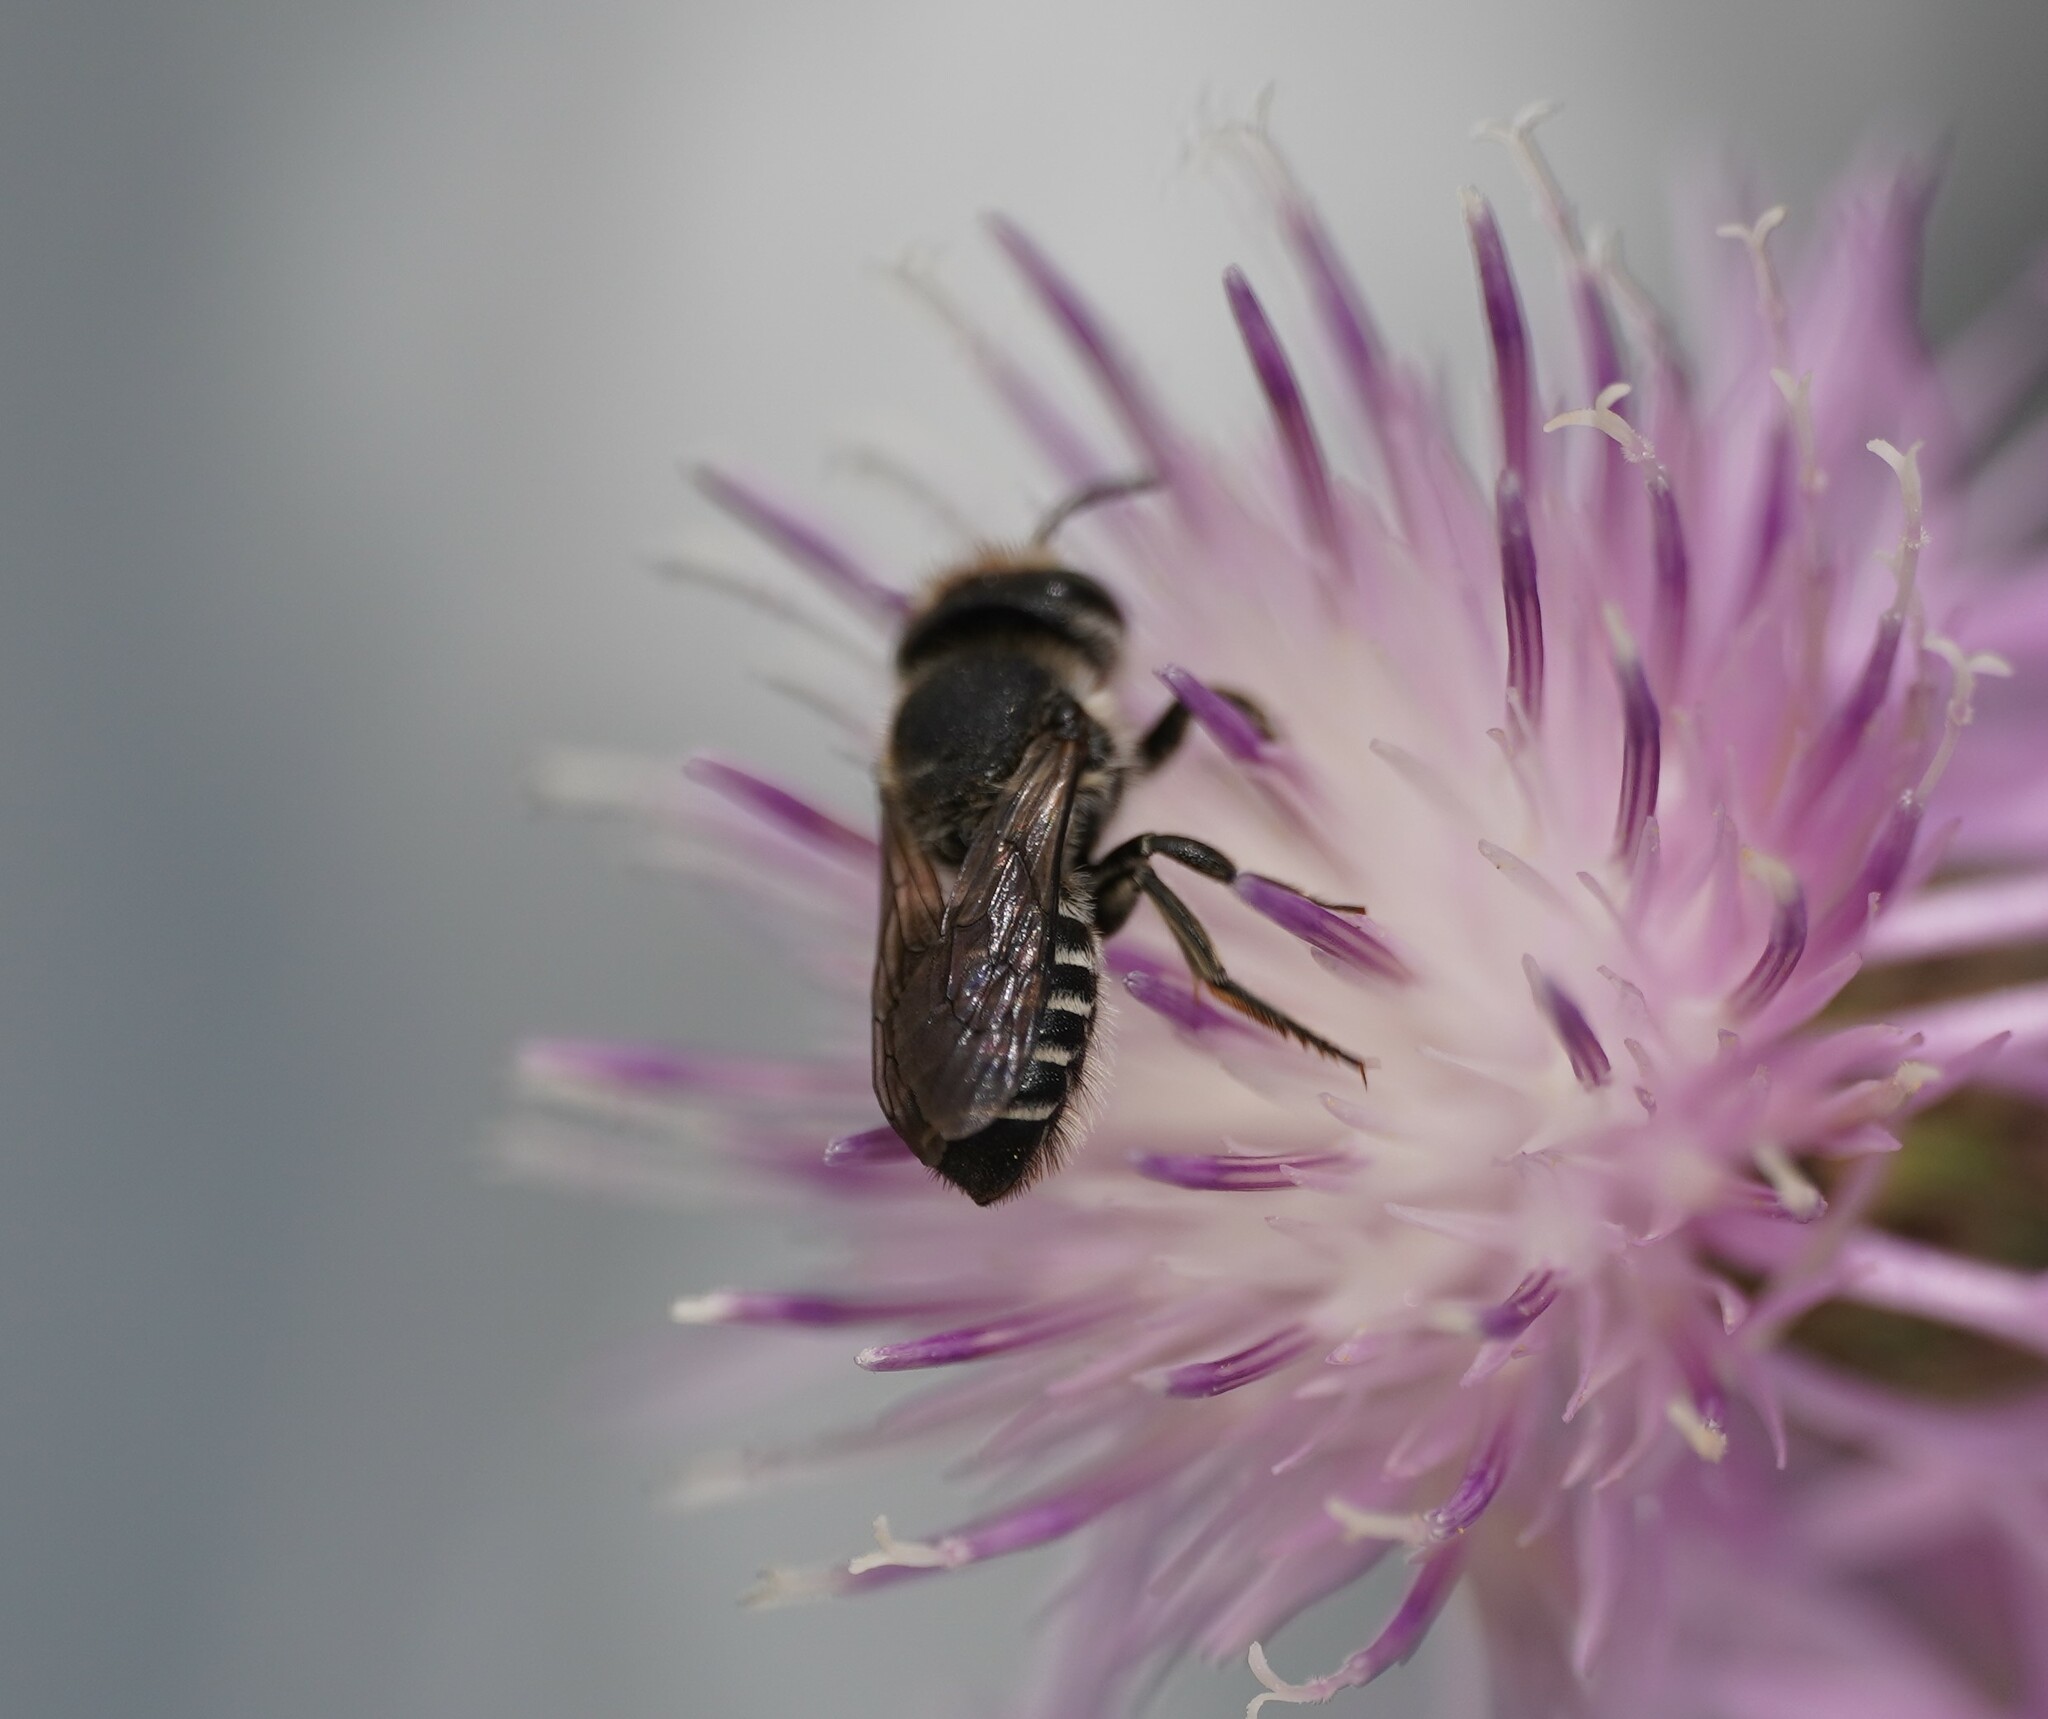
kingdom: Animalia
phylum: Arthropoda
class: Insecta
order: Hymenoptera
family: Megachilidae
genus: Megachile
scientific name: Megachile rotundata
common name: Alfalfa leafcutting bee
